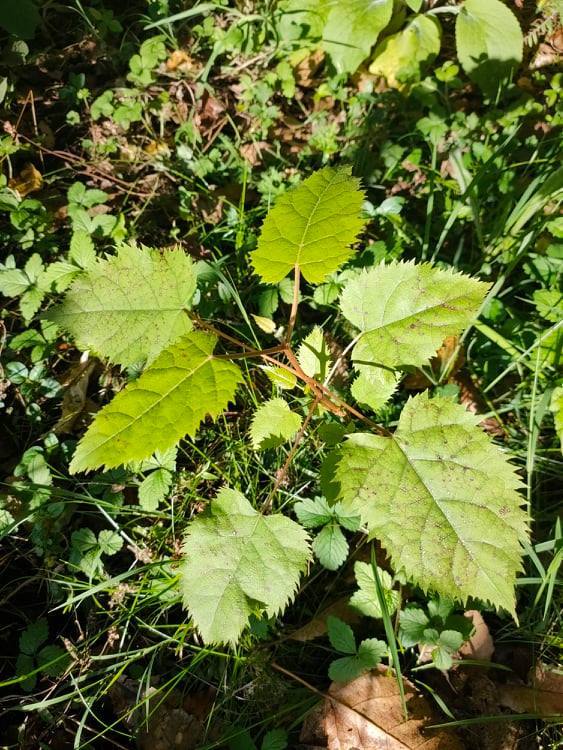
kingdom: Plantae
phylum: Tracheophyta
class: Magnoliopsida
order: Oxalidales
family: Elaeocarpaceae
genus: Aristotelia
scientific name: Aristotelia serrata
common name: New zealand wineberry
